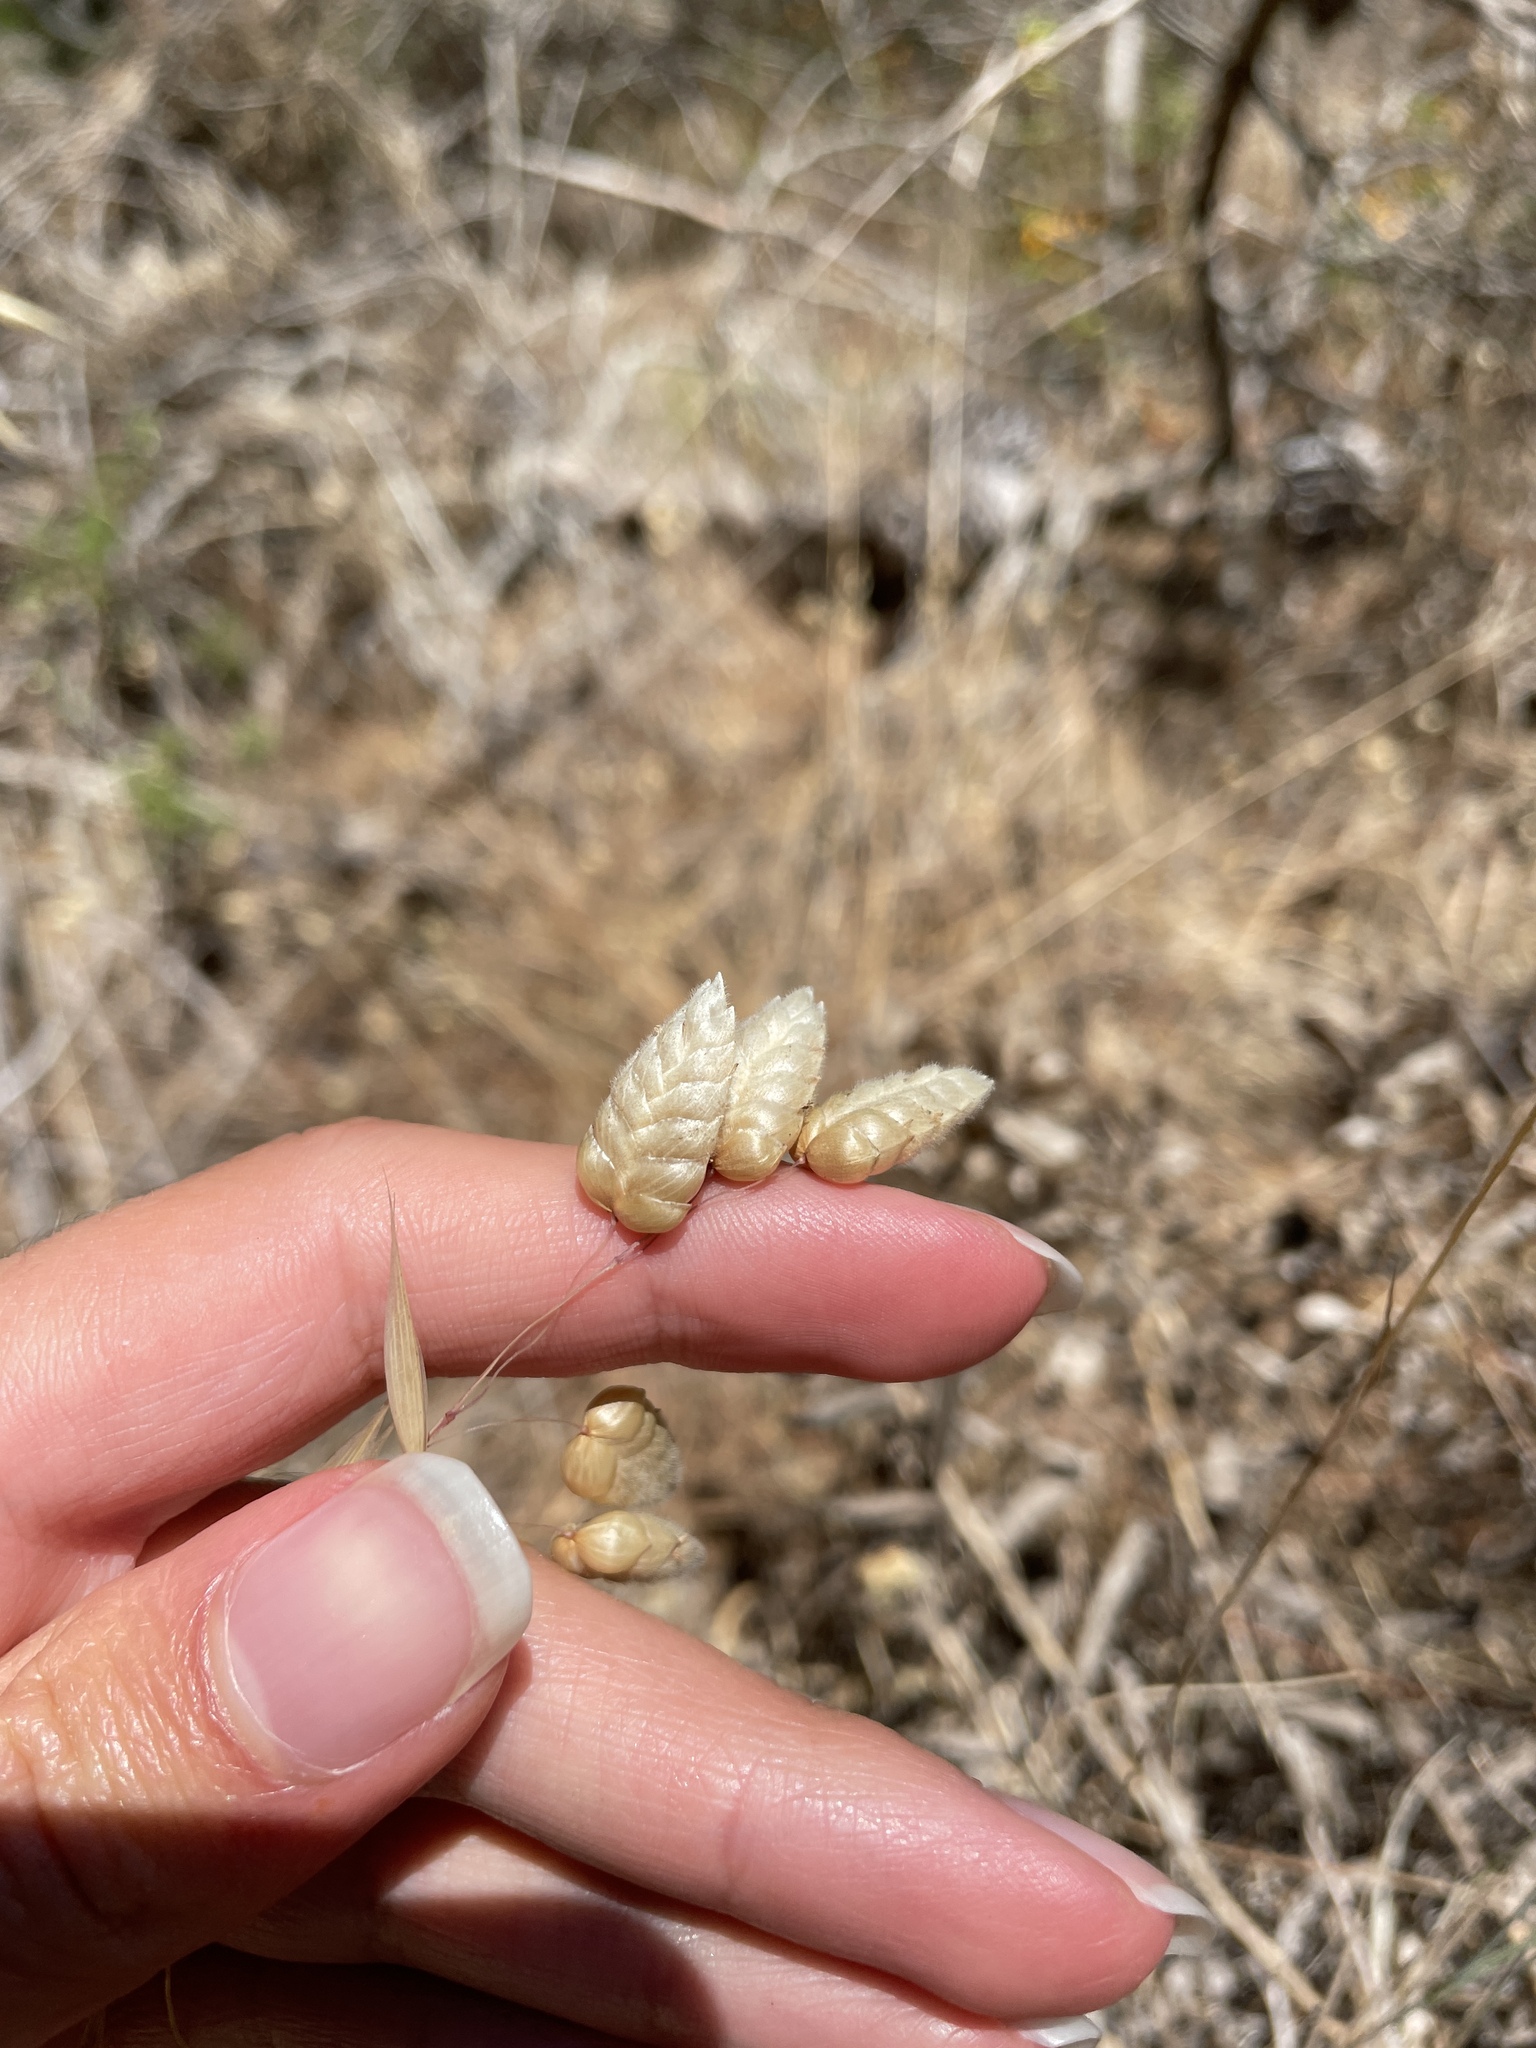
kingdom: Plantae
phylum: Tracheophyta
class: Liliopsida
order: Poales
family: Poaceae
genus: Briza
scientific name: Briza maxima
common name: Big quakinggrass
